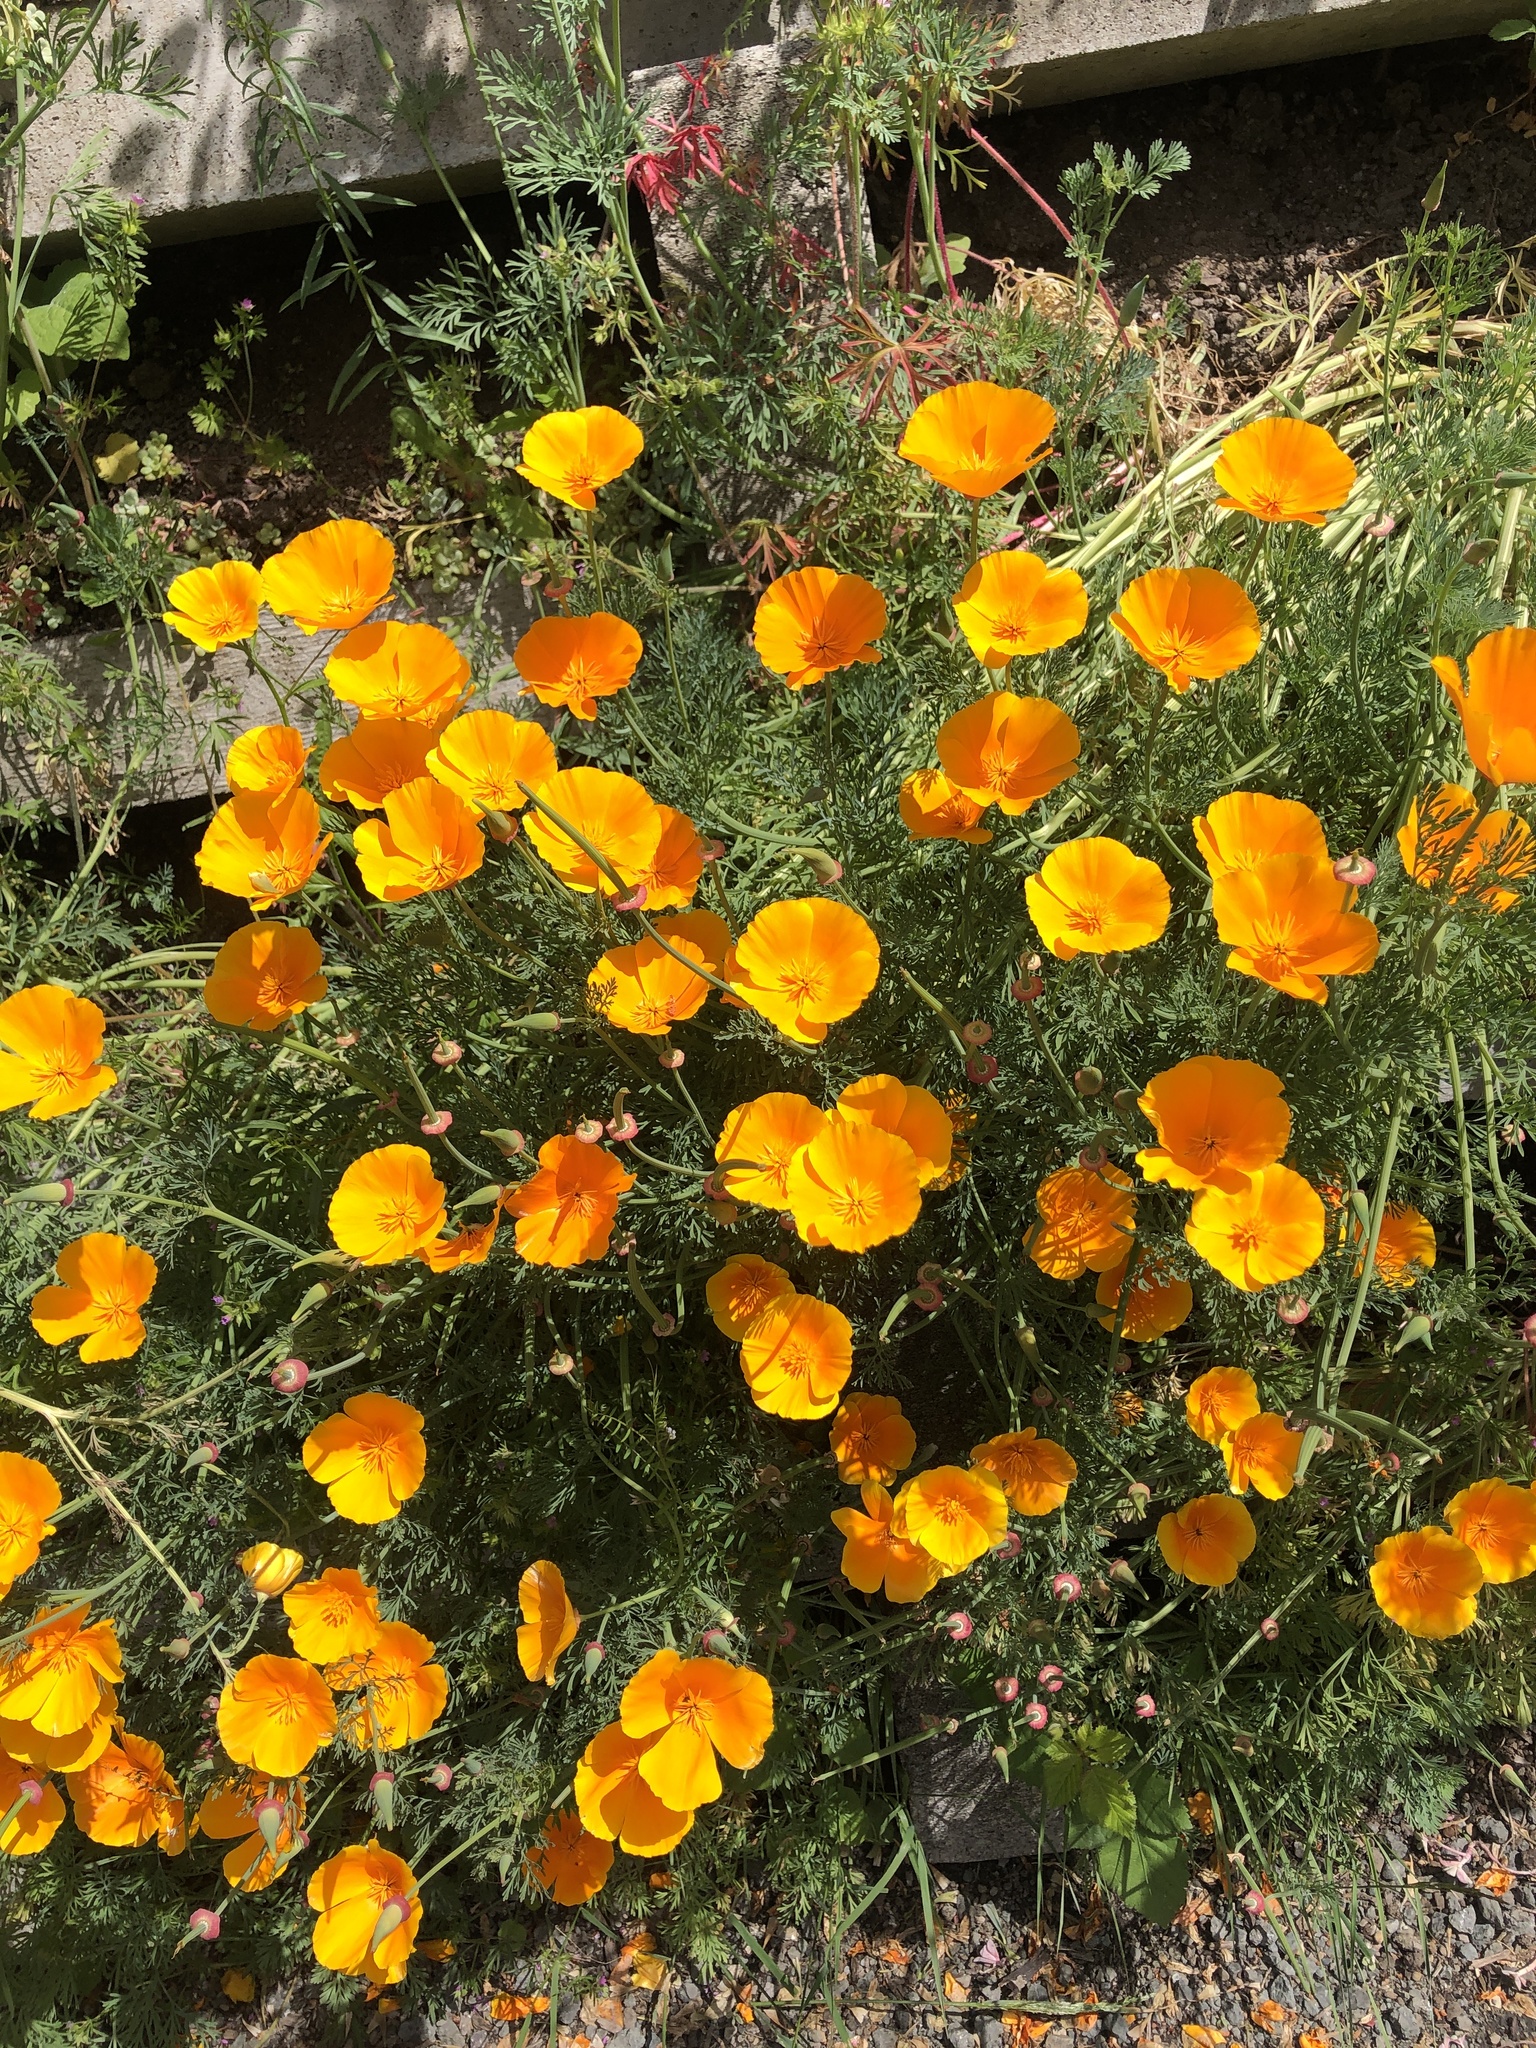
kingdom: Plantae
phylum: Tracheophyta
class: Magnoliopsida
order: Ranunculales
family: Papaveraceae
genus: Eschscholzia
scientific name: Eschscholzia californica
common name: California poppy
